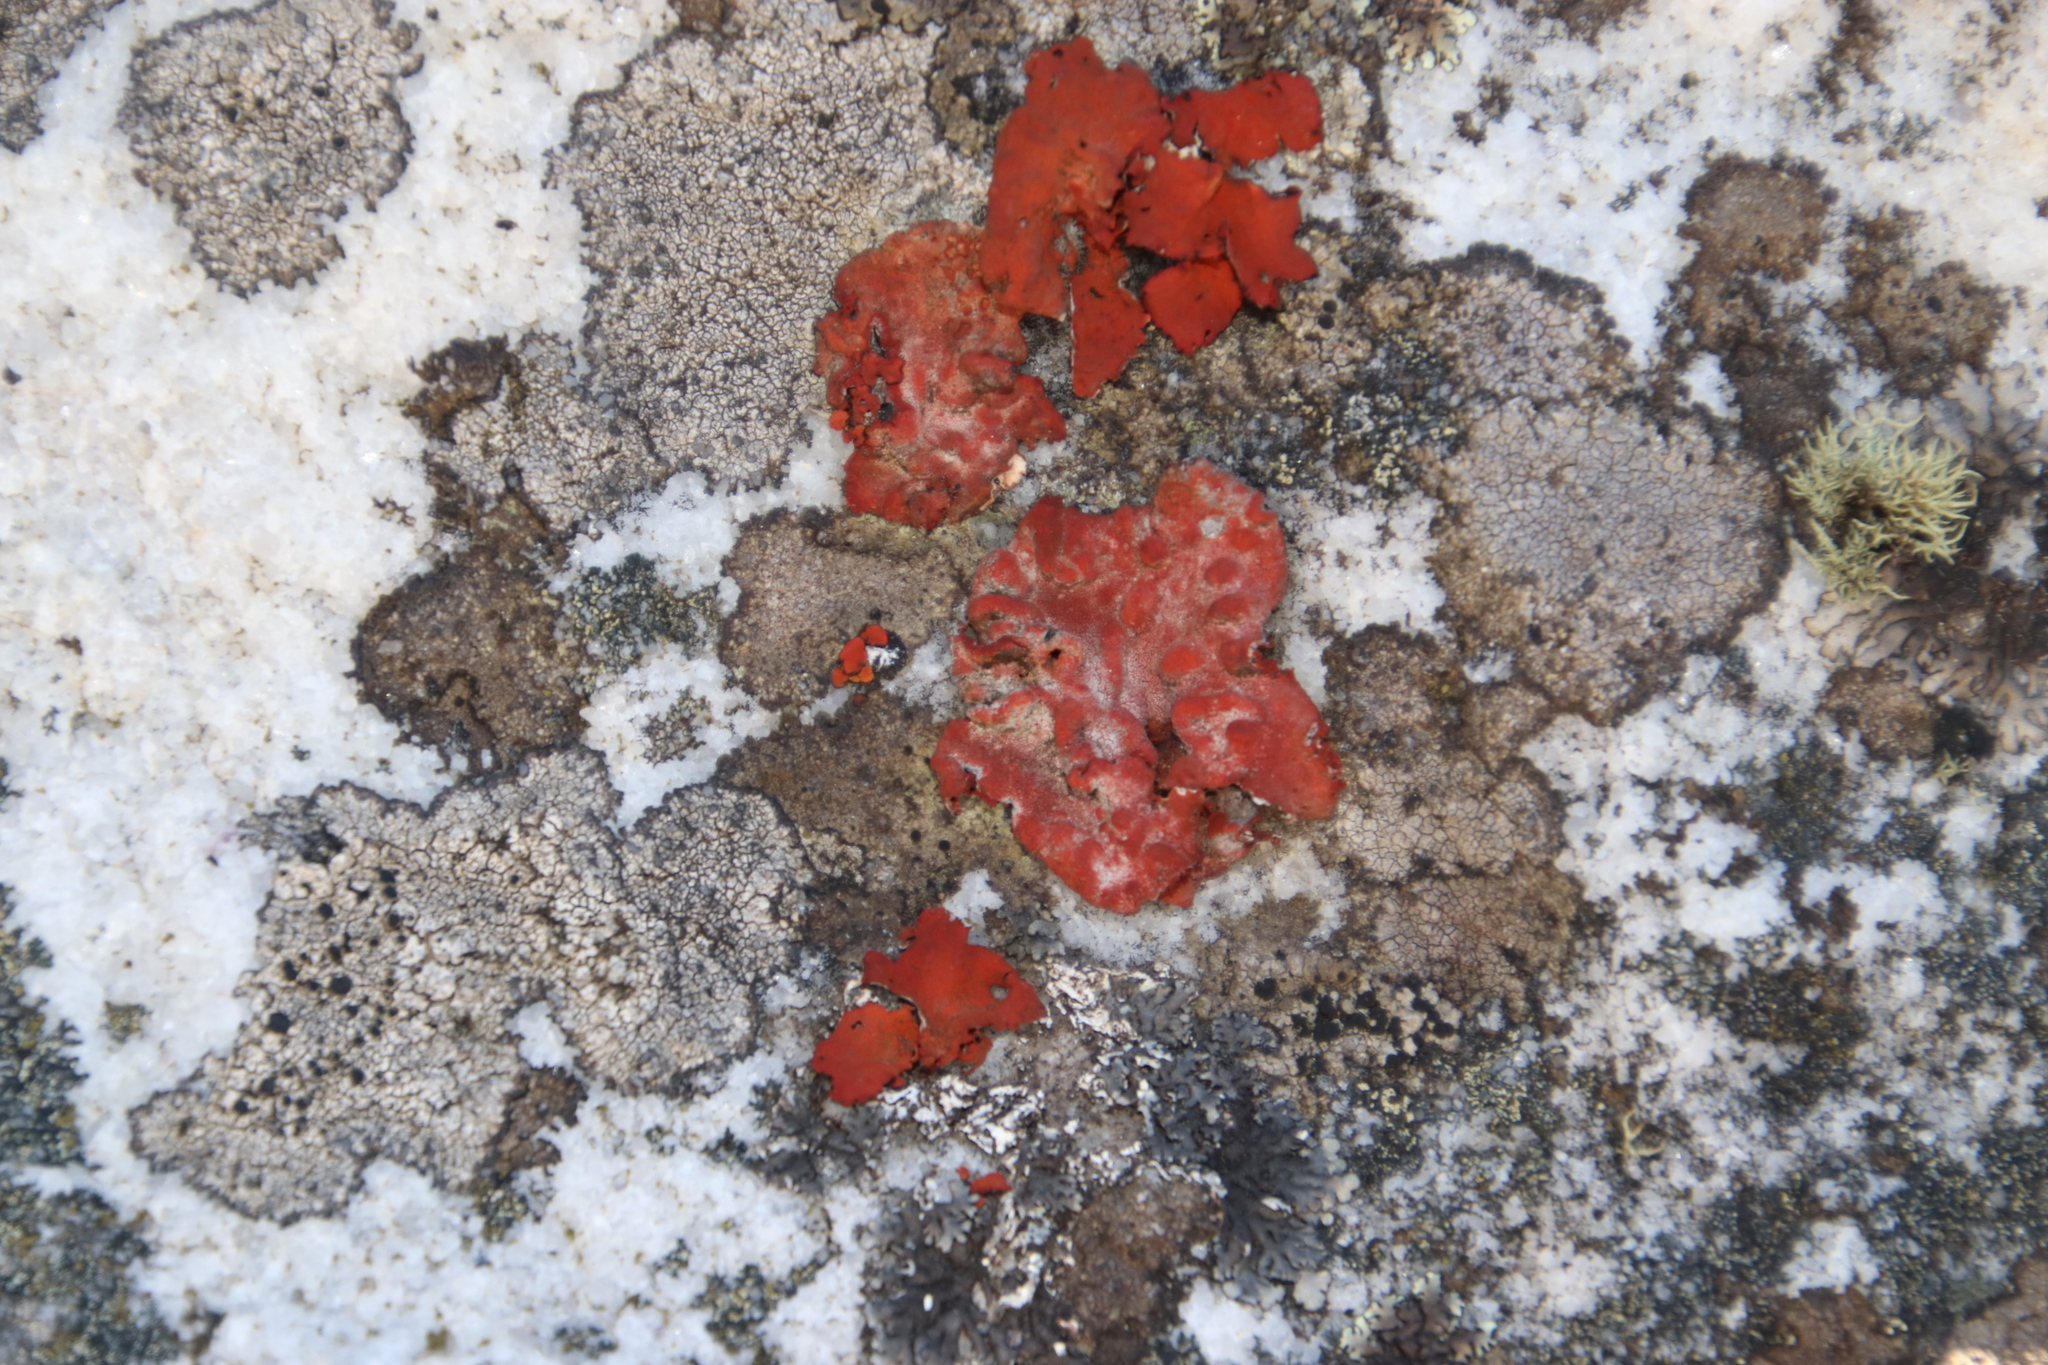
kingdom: Fungi
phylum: Ascomycota
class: Lecanoromycetes
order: Umbilicariales
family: Umbilicariaceae
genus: Lasallia
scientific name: Lasallia rubiginosa
